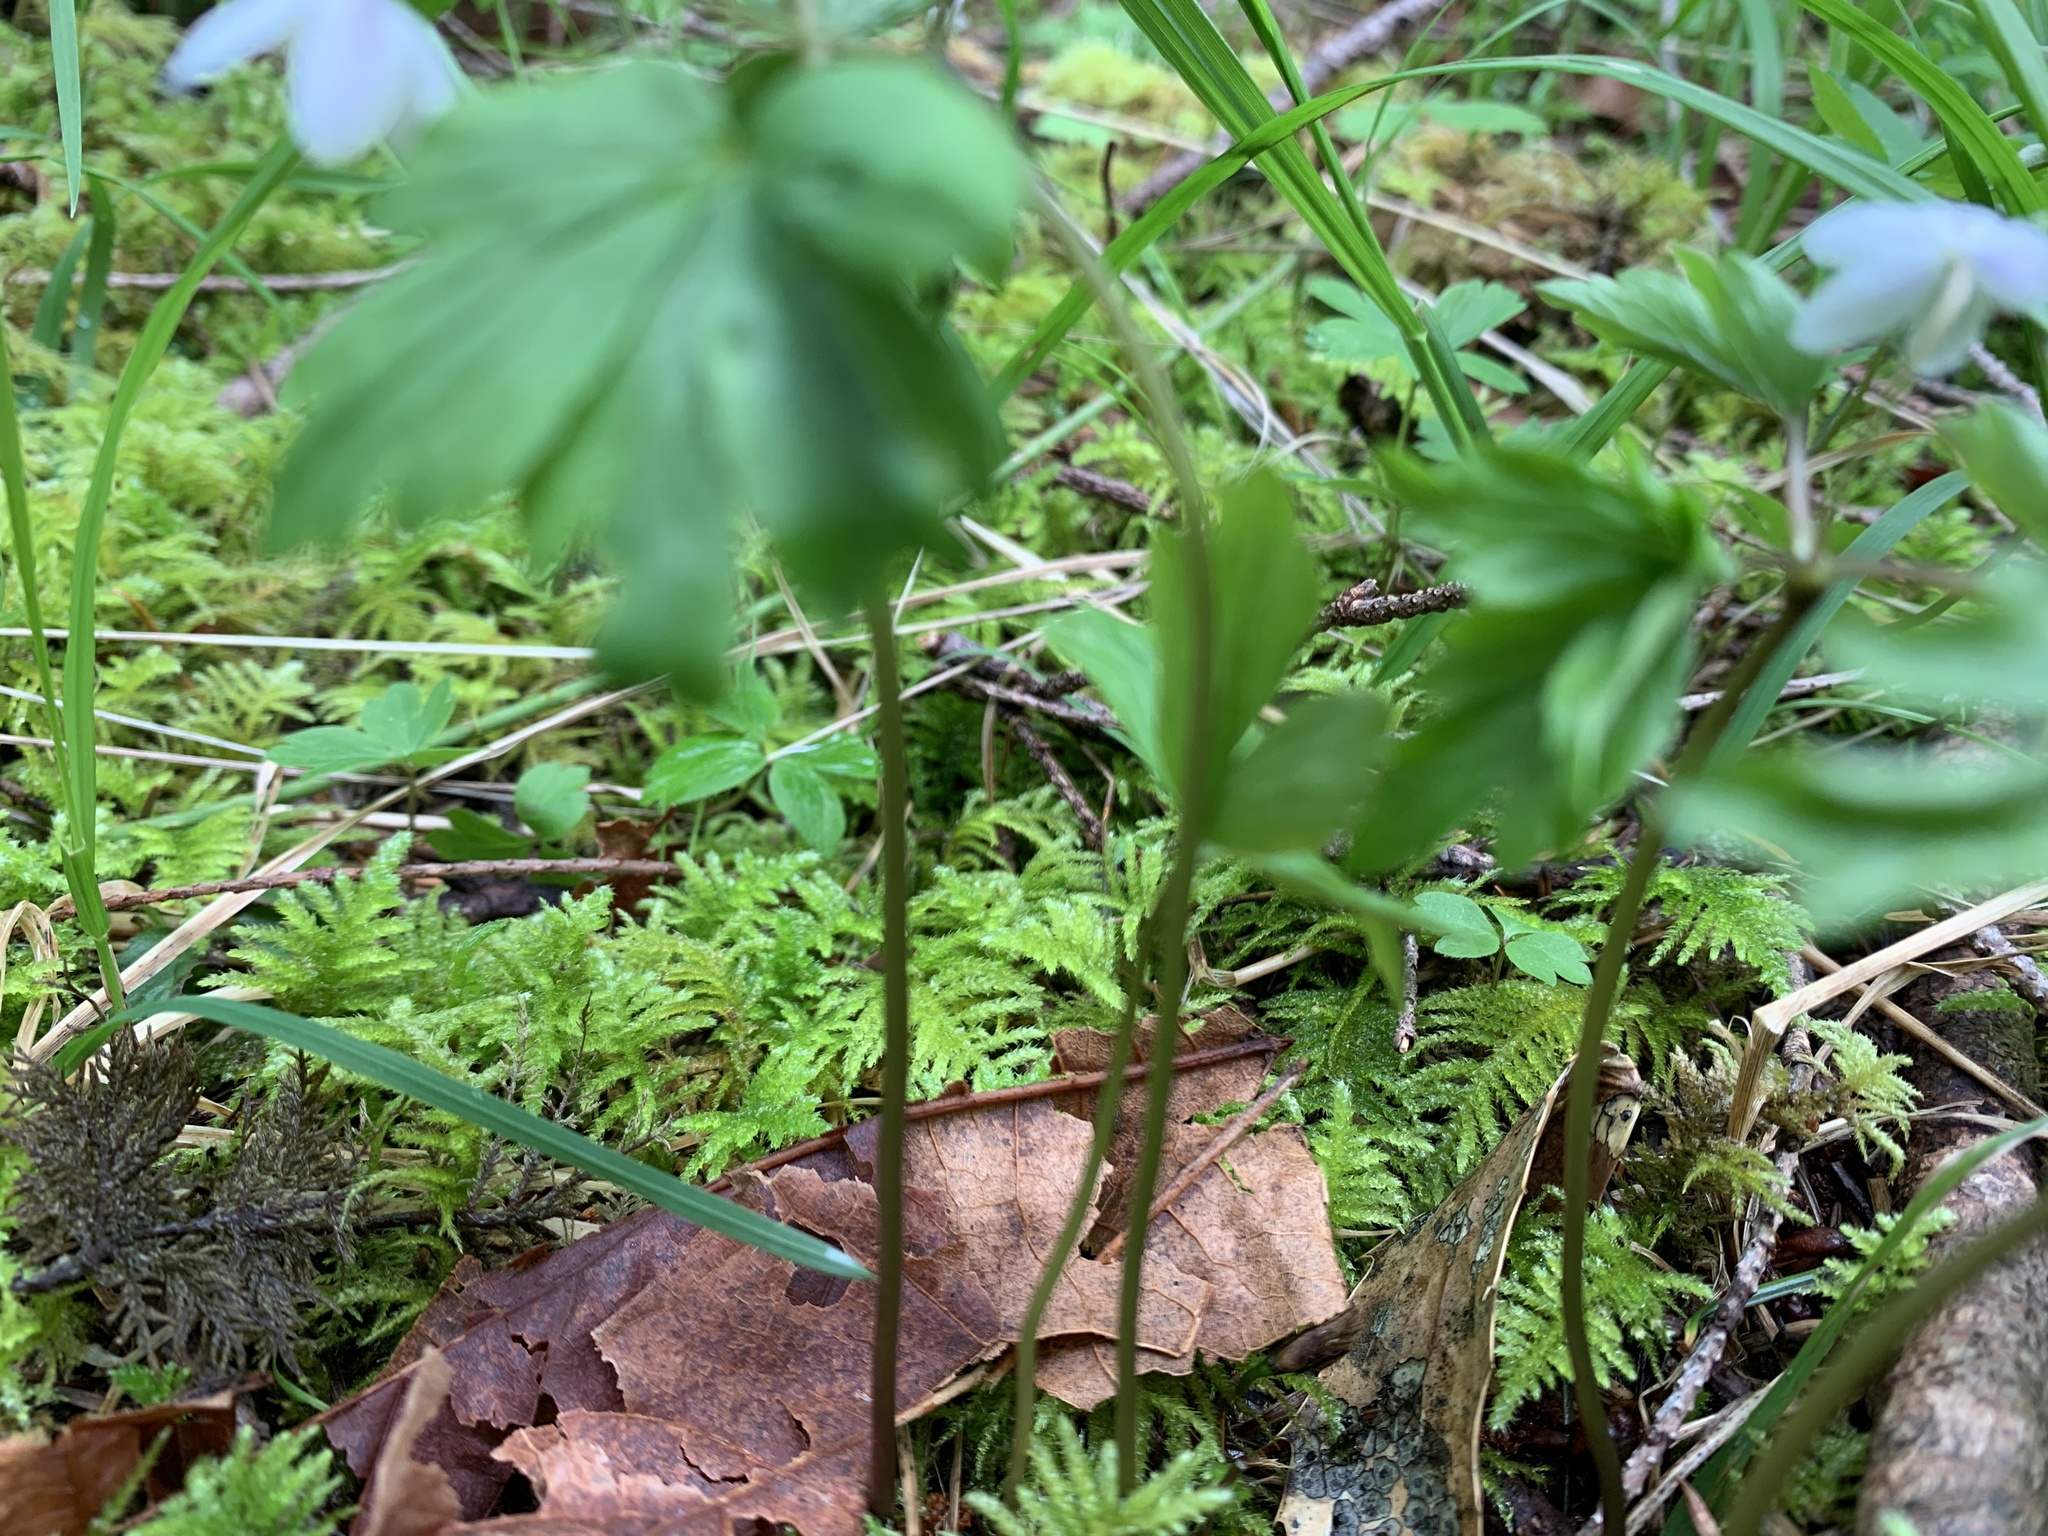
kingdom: Plantae
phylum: Tracheophyta
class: Magnoliopsida
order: Ranunculales
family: Ranunculaceae
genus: Anemone
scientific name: Anemone
